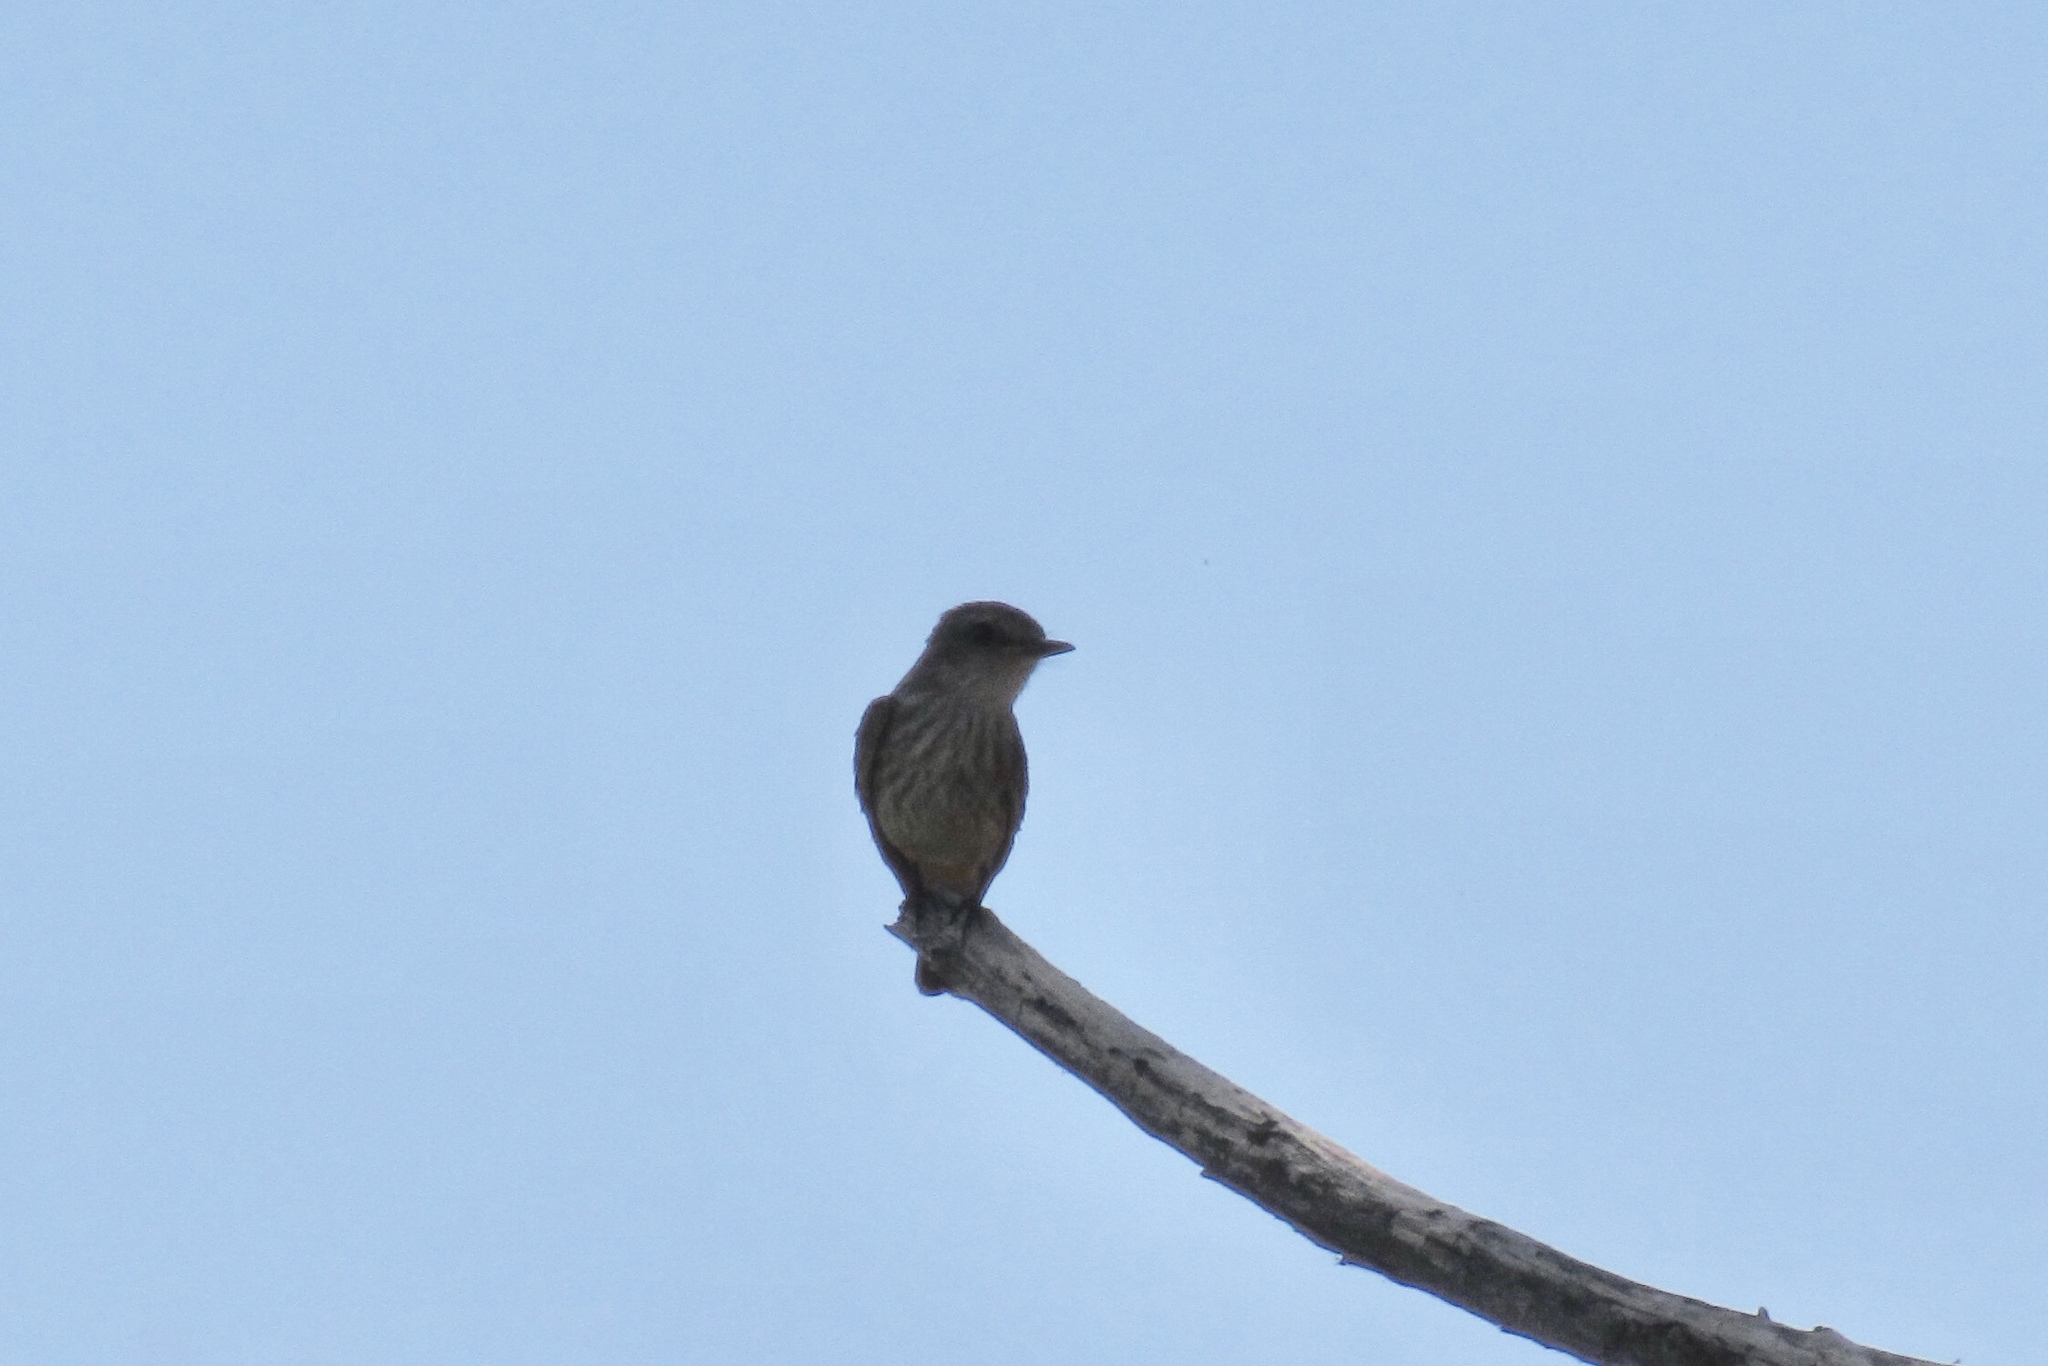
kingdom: Animalia
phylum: Chordata
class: Aves
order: Passeriformes
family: Tyrannidae
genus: Pyrocephalus
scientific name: Pyrocephalus rubinus
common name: Vermilion flycatcher
